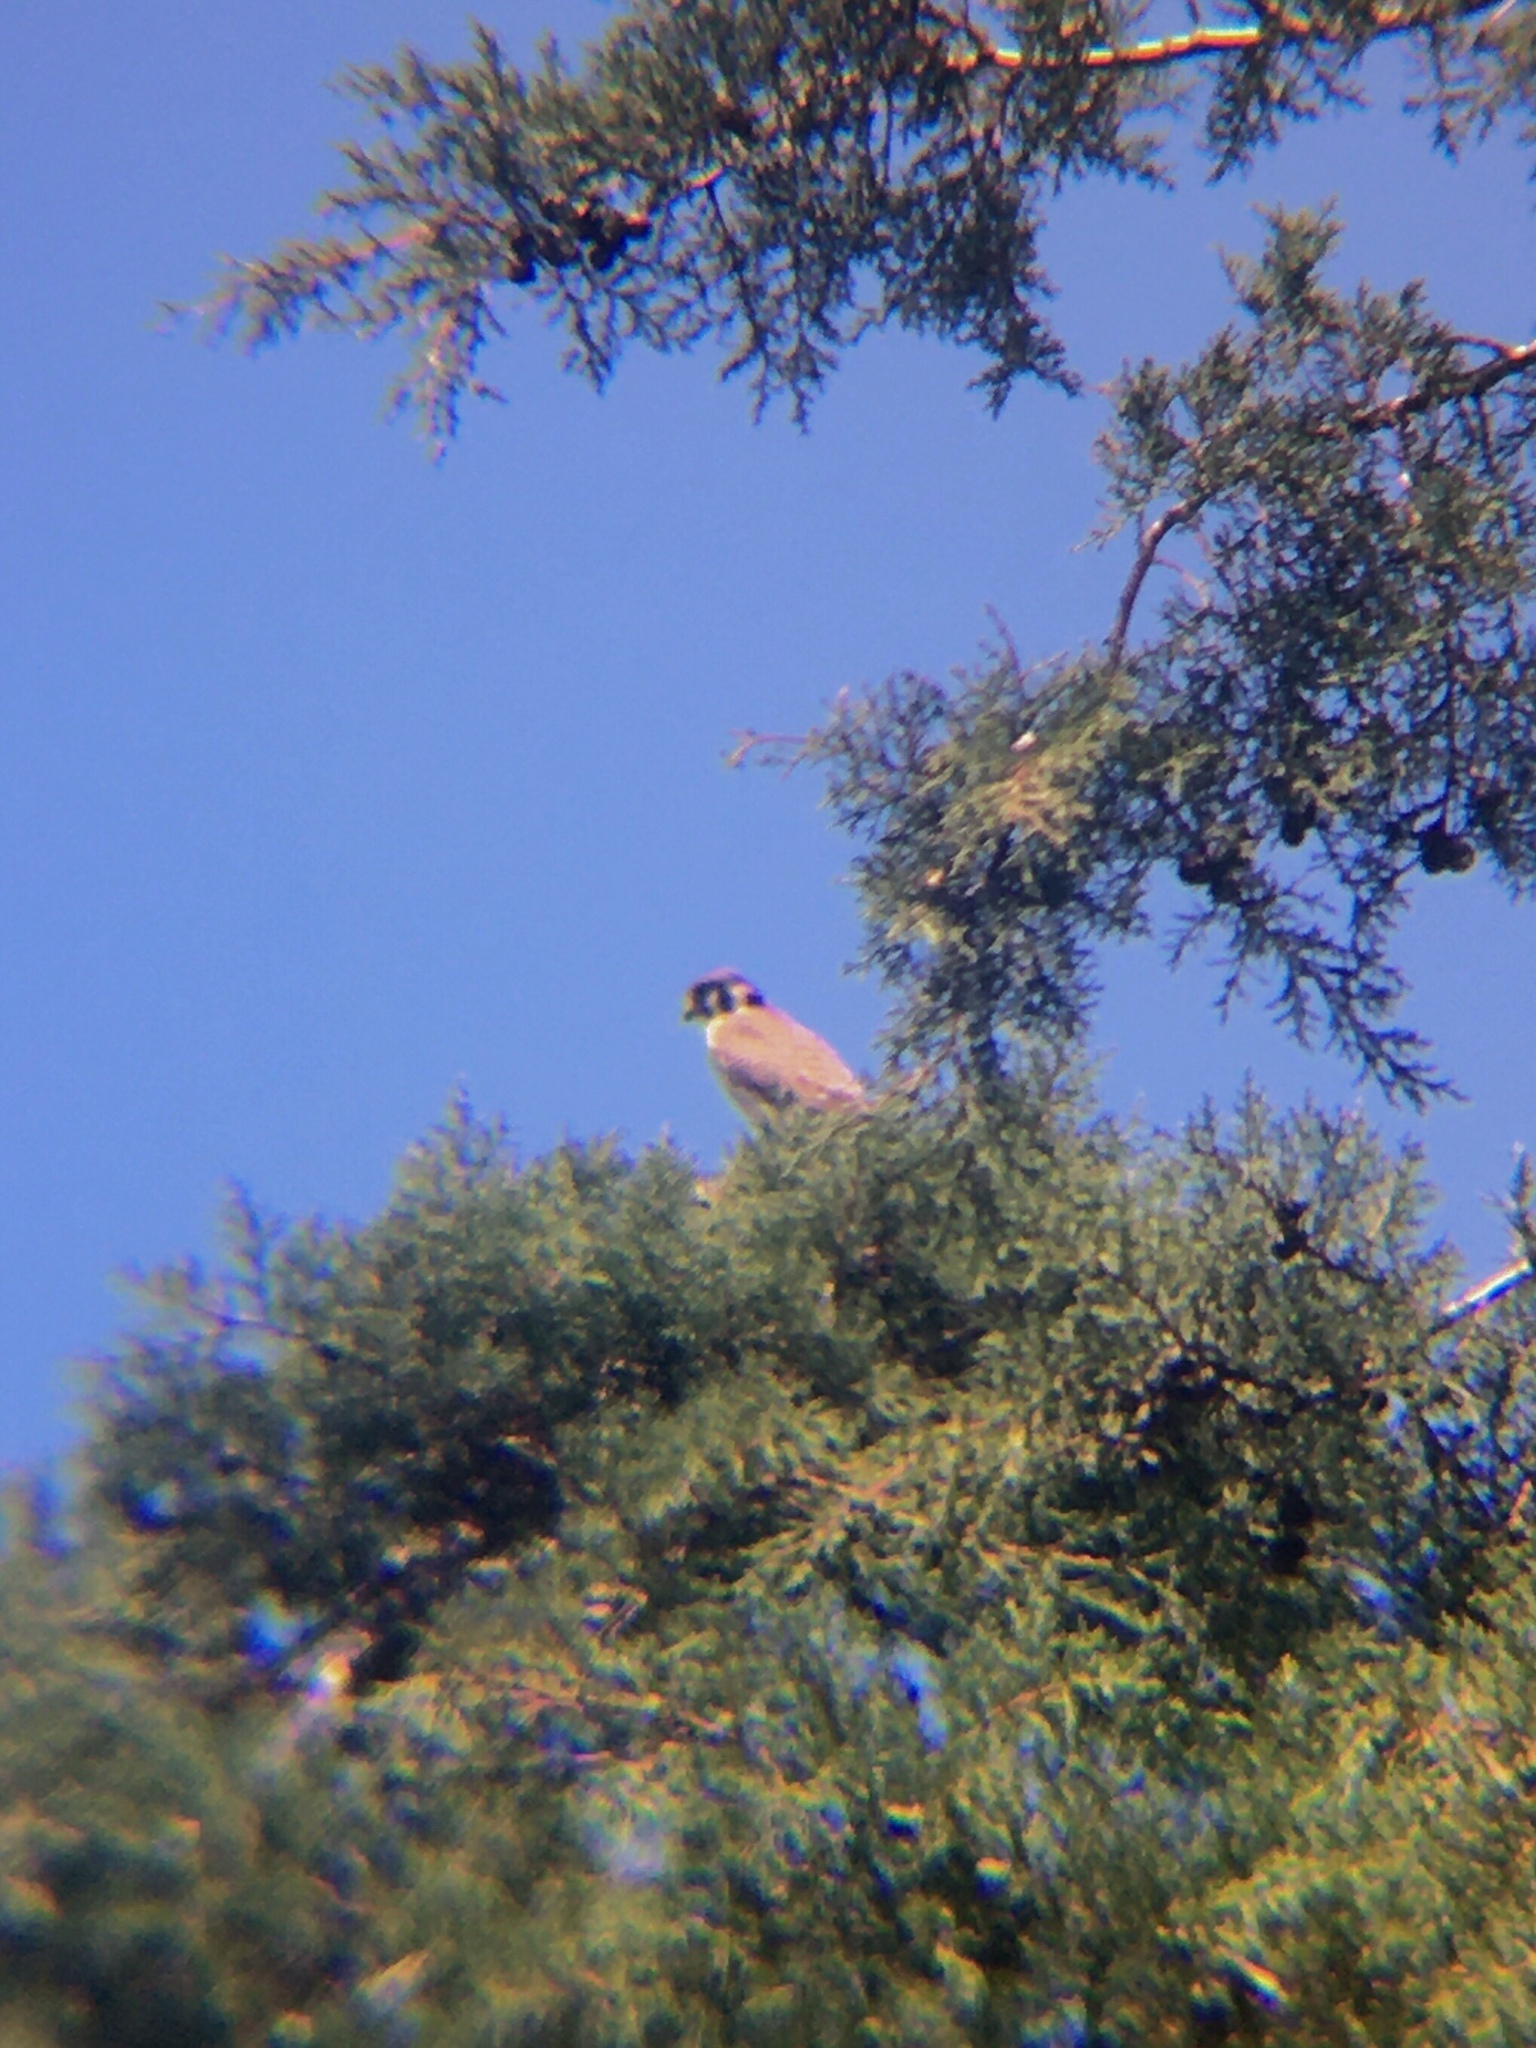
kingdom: Animalia
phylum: Chordata
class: Aves
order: Falconiformes
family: Falconidae
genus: Falco
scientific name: Falco sparverius
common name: American kestrel
